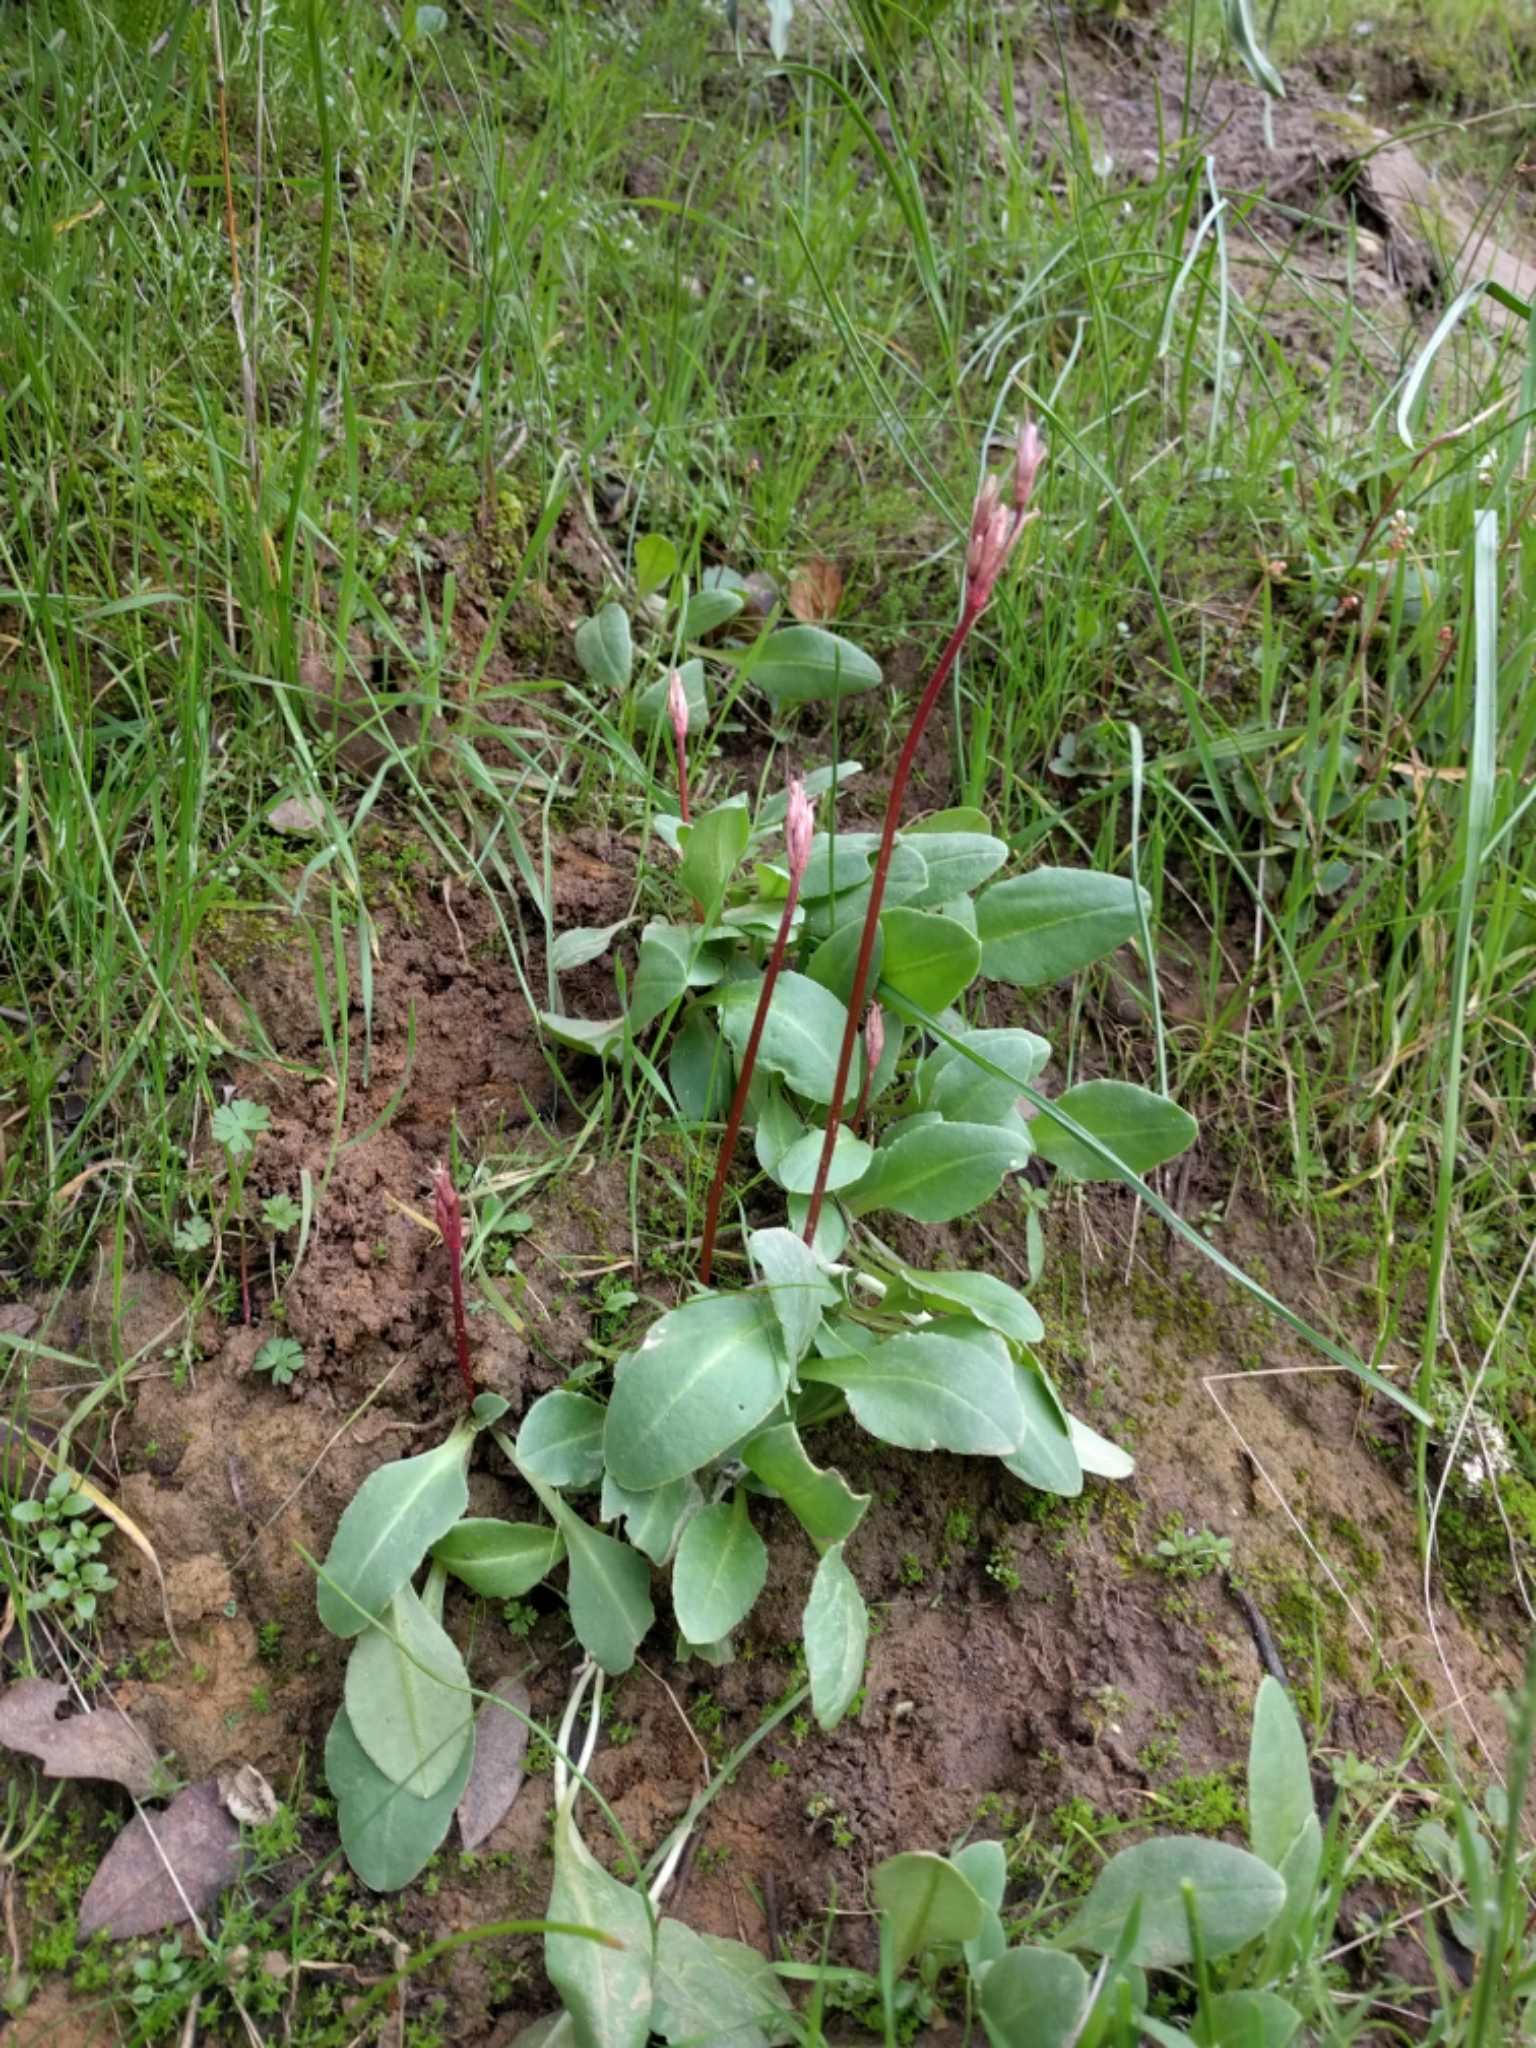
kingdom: Plantae
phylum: Tracheophyta
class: Magnoliopsida
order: Ericales
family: Primulaceae
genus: Dodecatheon
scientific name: Dodecatheon hendersonii
